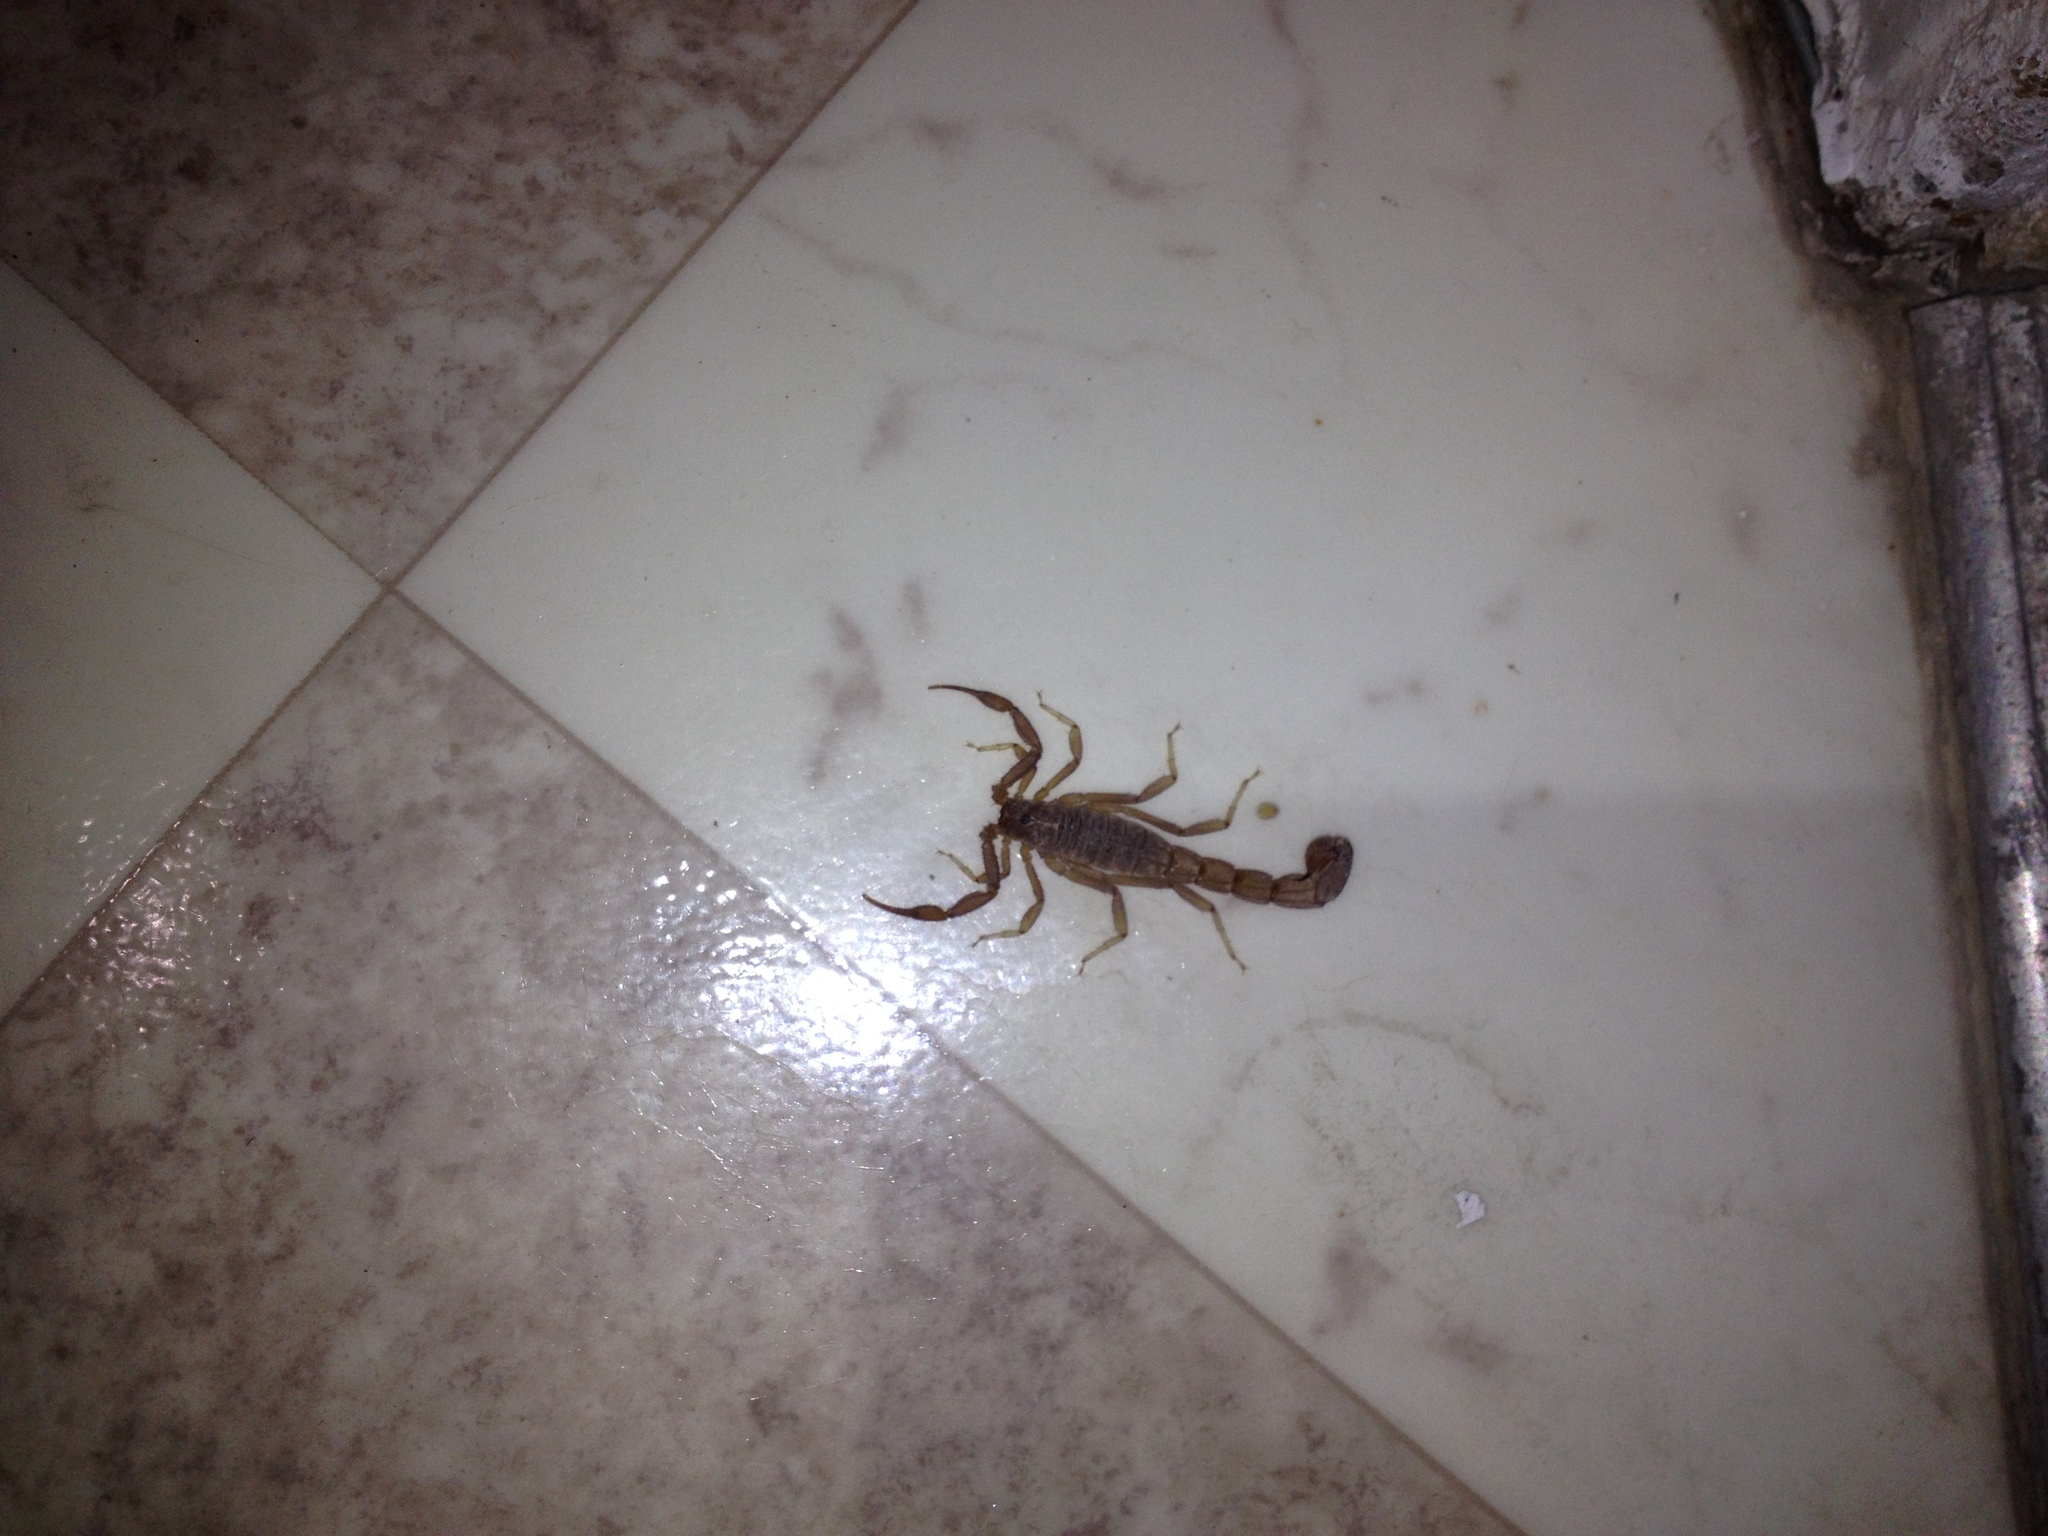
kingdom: Animalia
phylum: Arthropoda
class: Arachnida
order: Scorpiones
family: Vaejovidae
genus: Paravaejovis
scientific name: Paravaejovis confusus
